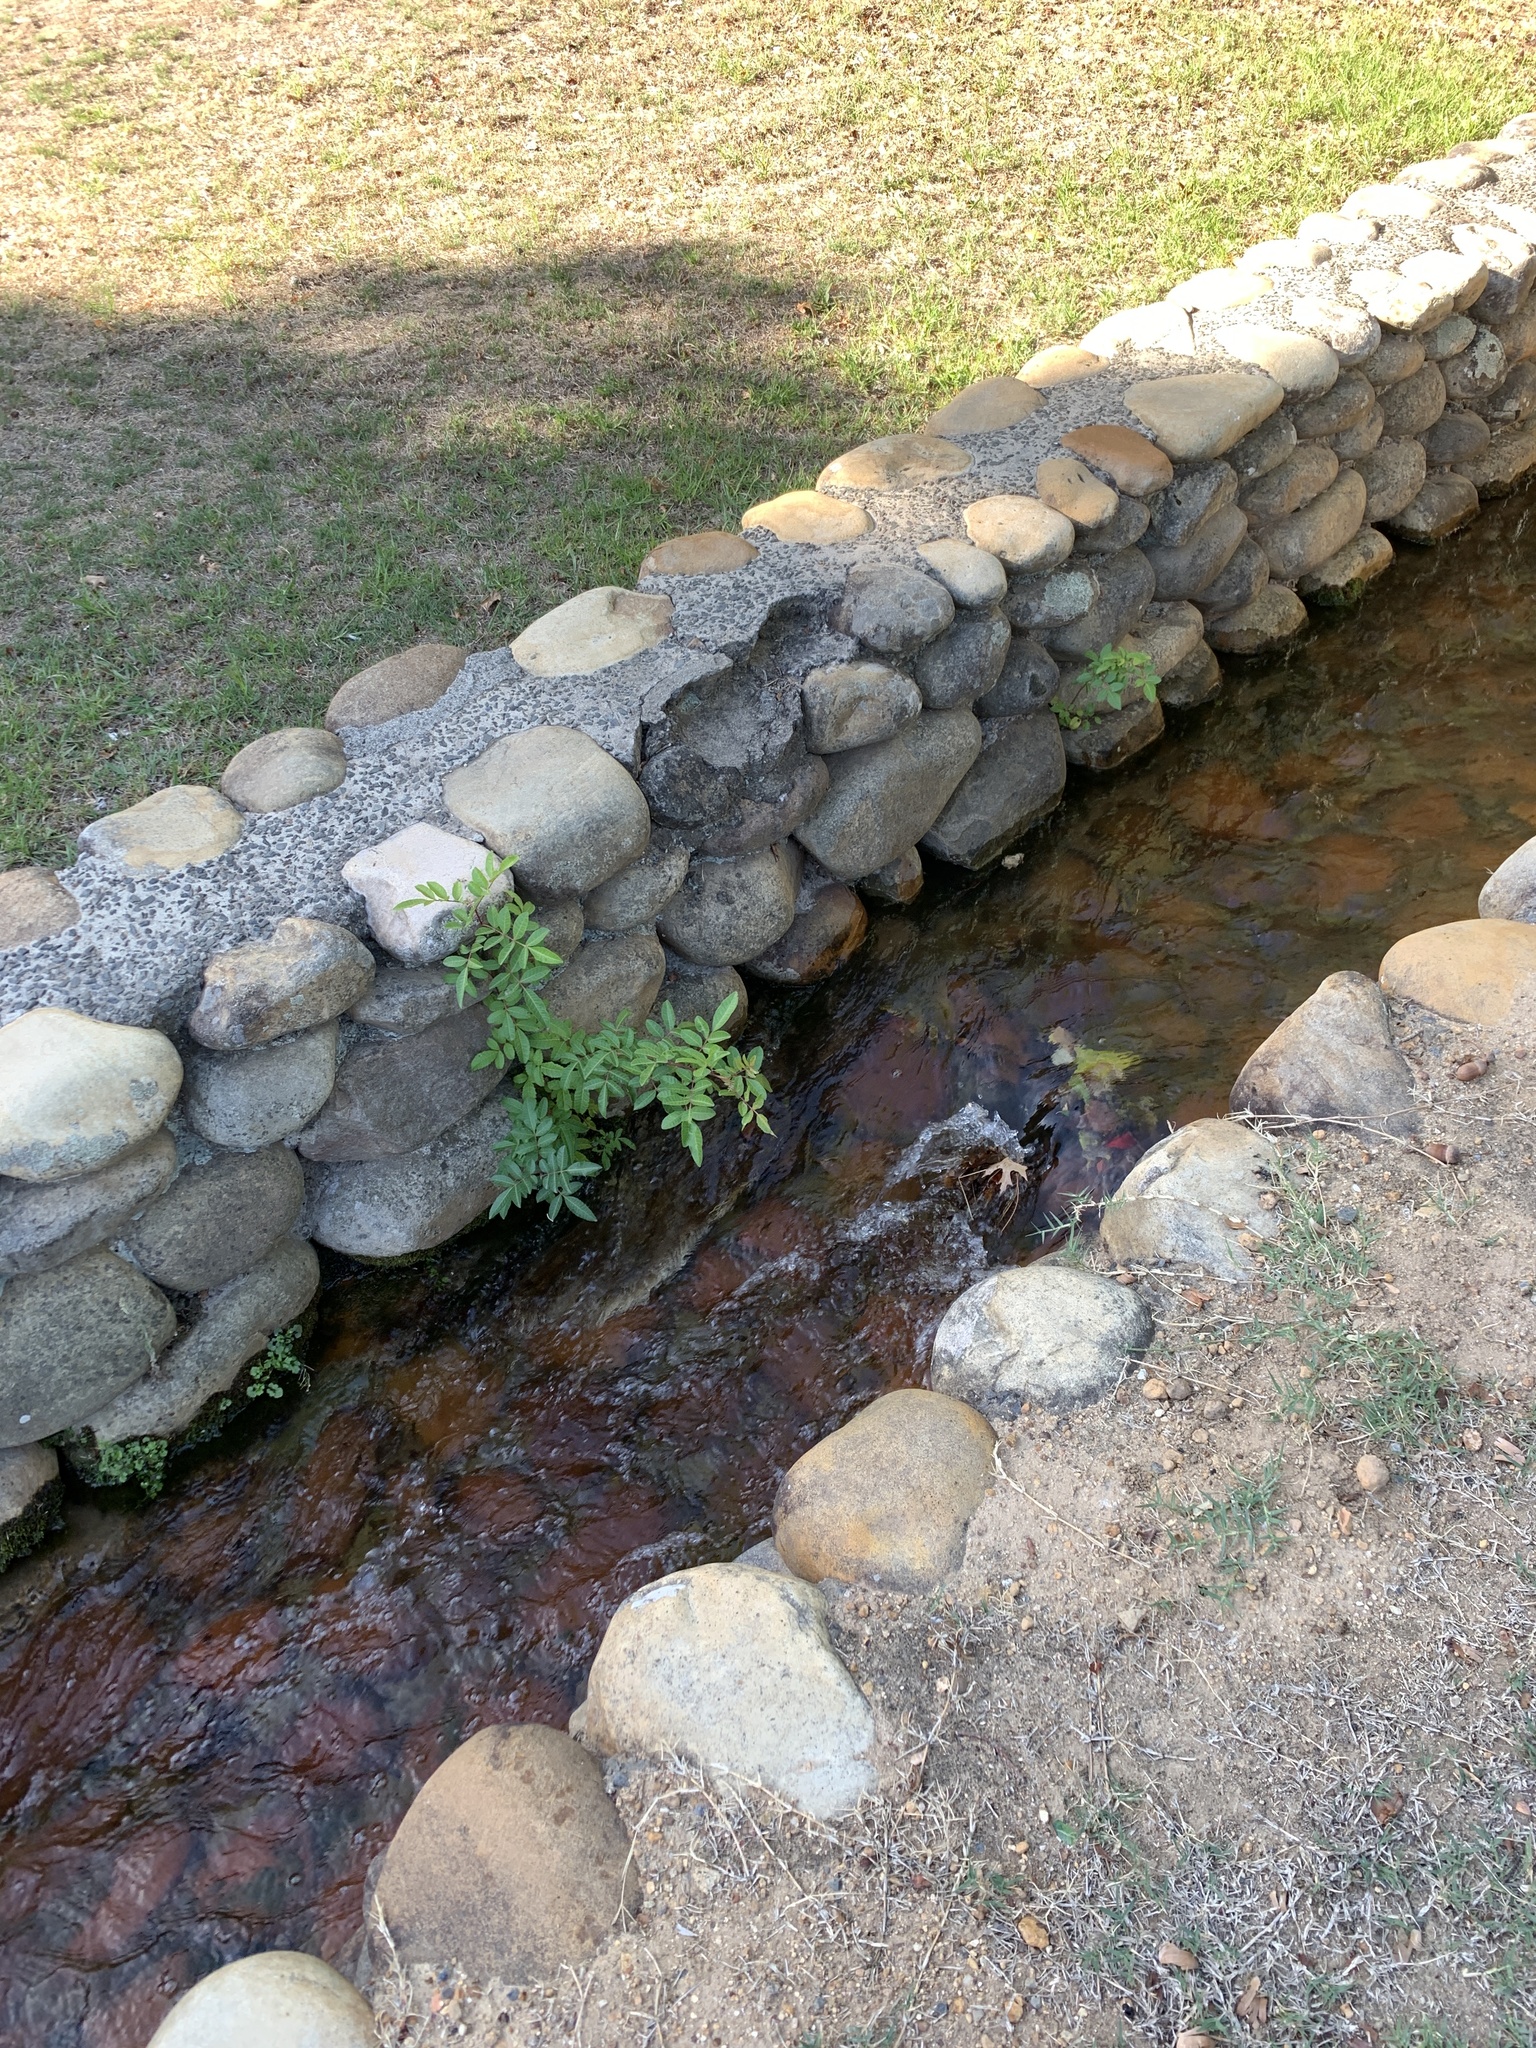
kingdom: Plantae
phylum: Tracheophyta
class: Magnoliopsida
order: Sapindales
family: Anacardiaceae
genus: Schinus
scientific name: Schinus terebinthifolia
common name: Brazilian peppertree
